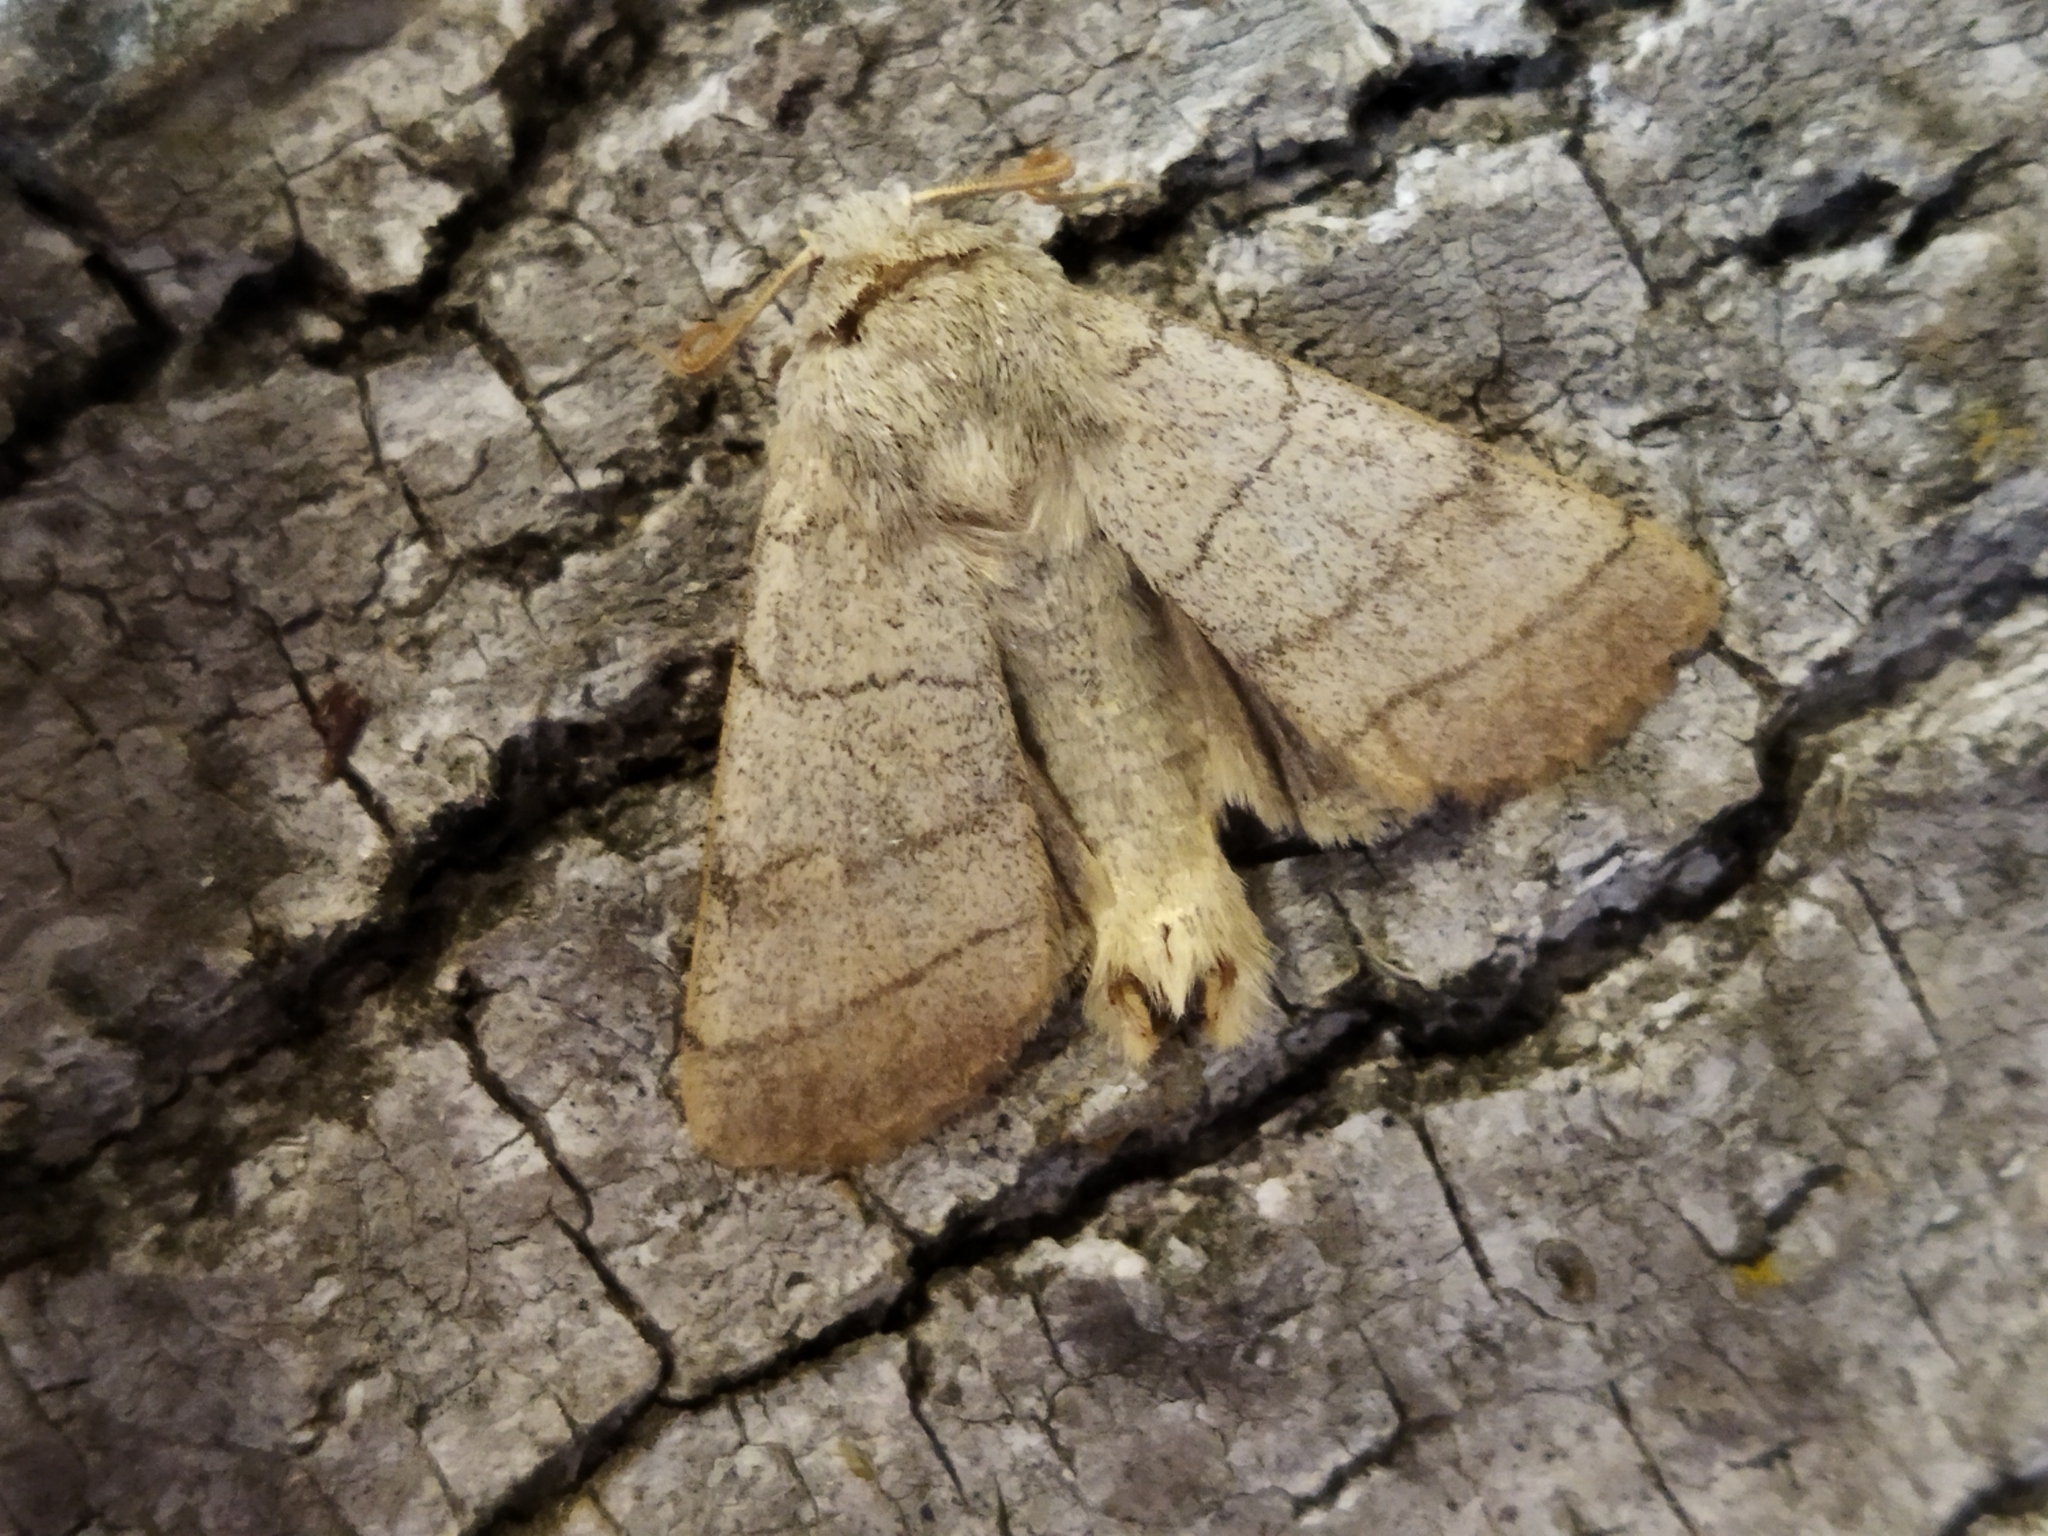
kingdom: Animalia
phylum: Arthropoda
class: Insecta
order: Lepidoptera
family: Noctuidae
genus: Charanyca
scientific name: Charanyca trigrammica
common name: Treble lines
